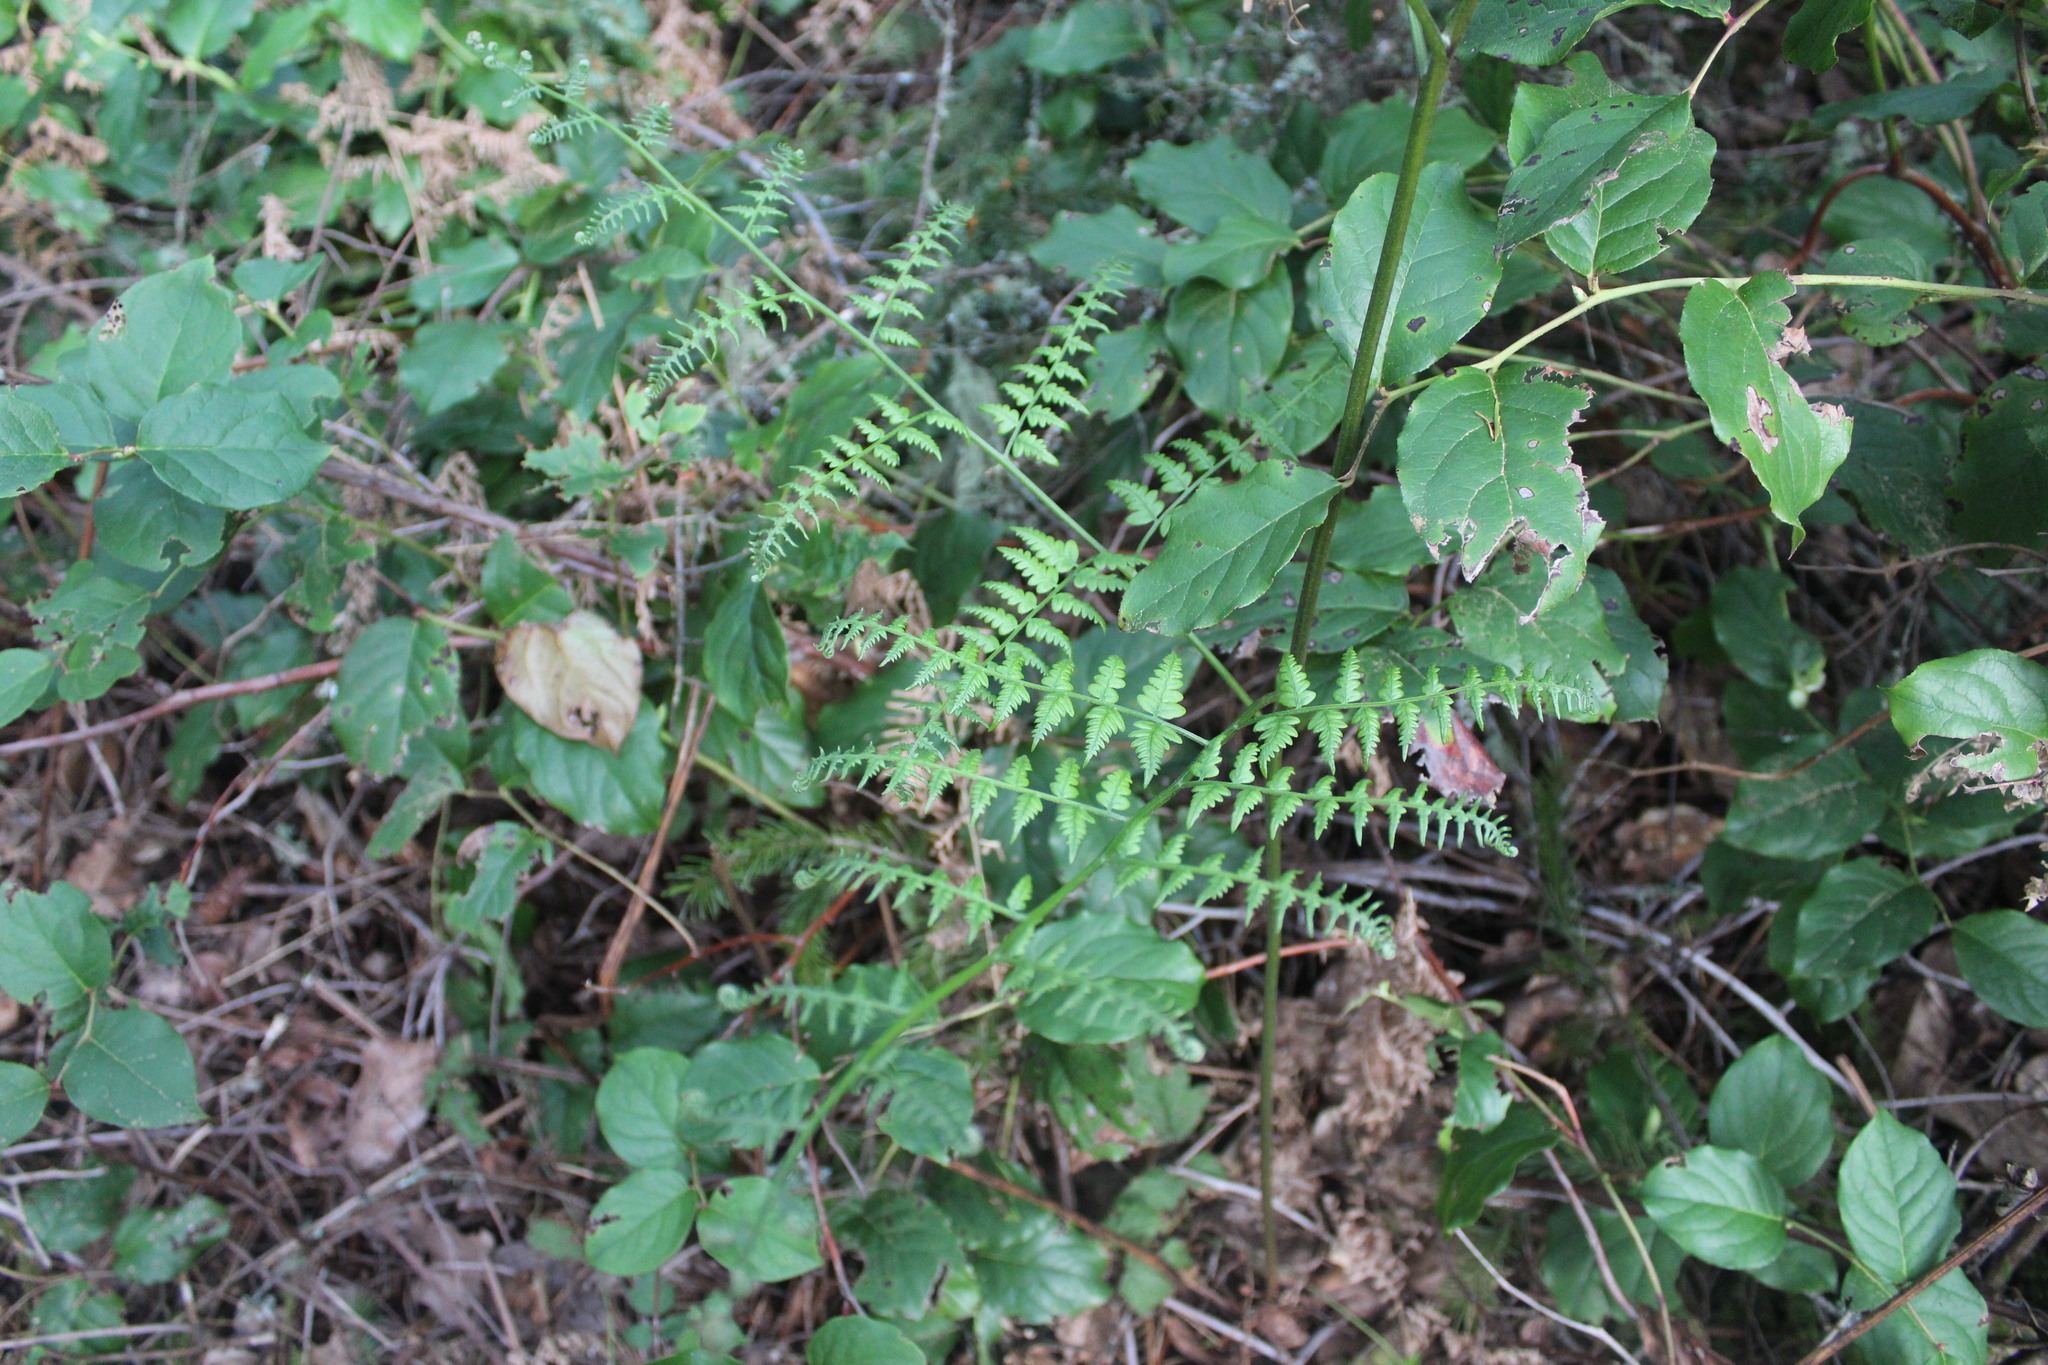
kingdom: Plantae
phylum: Tracheophyta
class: Polypodiopsida
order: Polypodiales
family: Dennstaedtiaceae
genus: Pteridium
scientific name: Pteridium aquilinum
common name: Bracken
